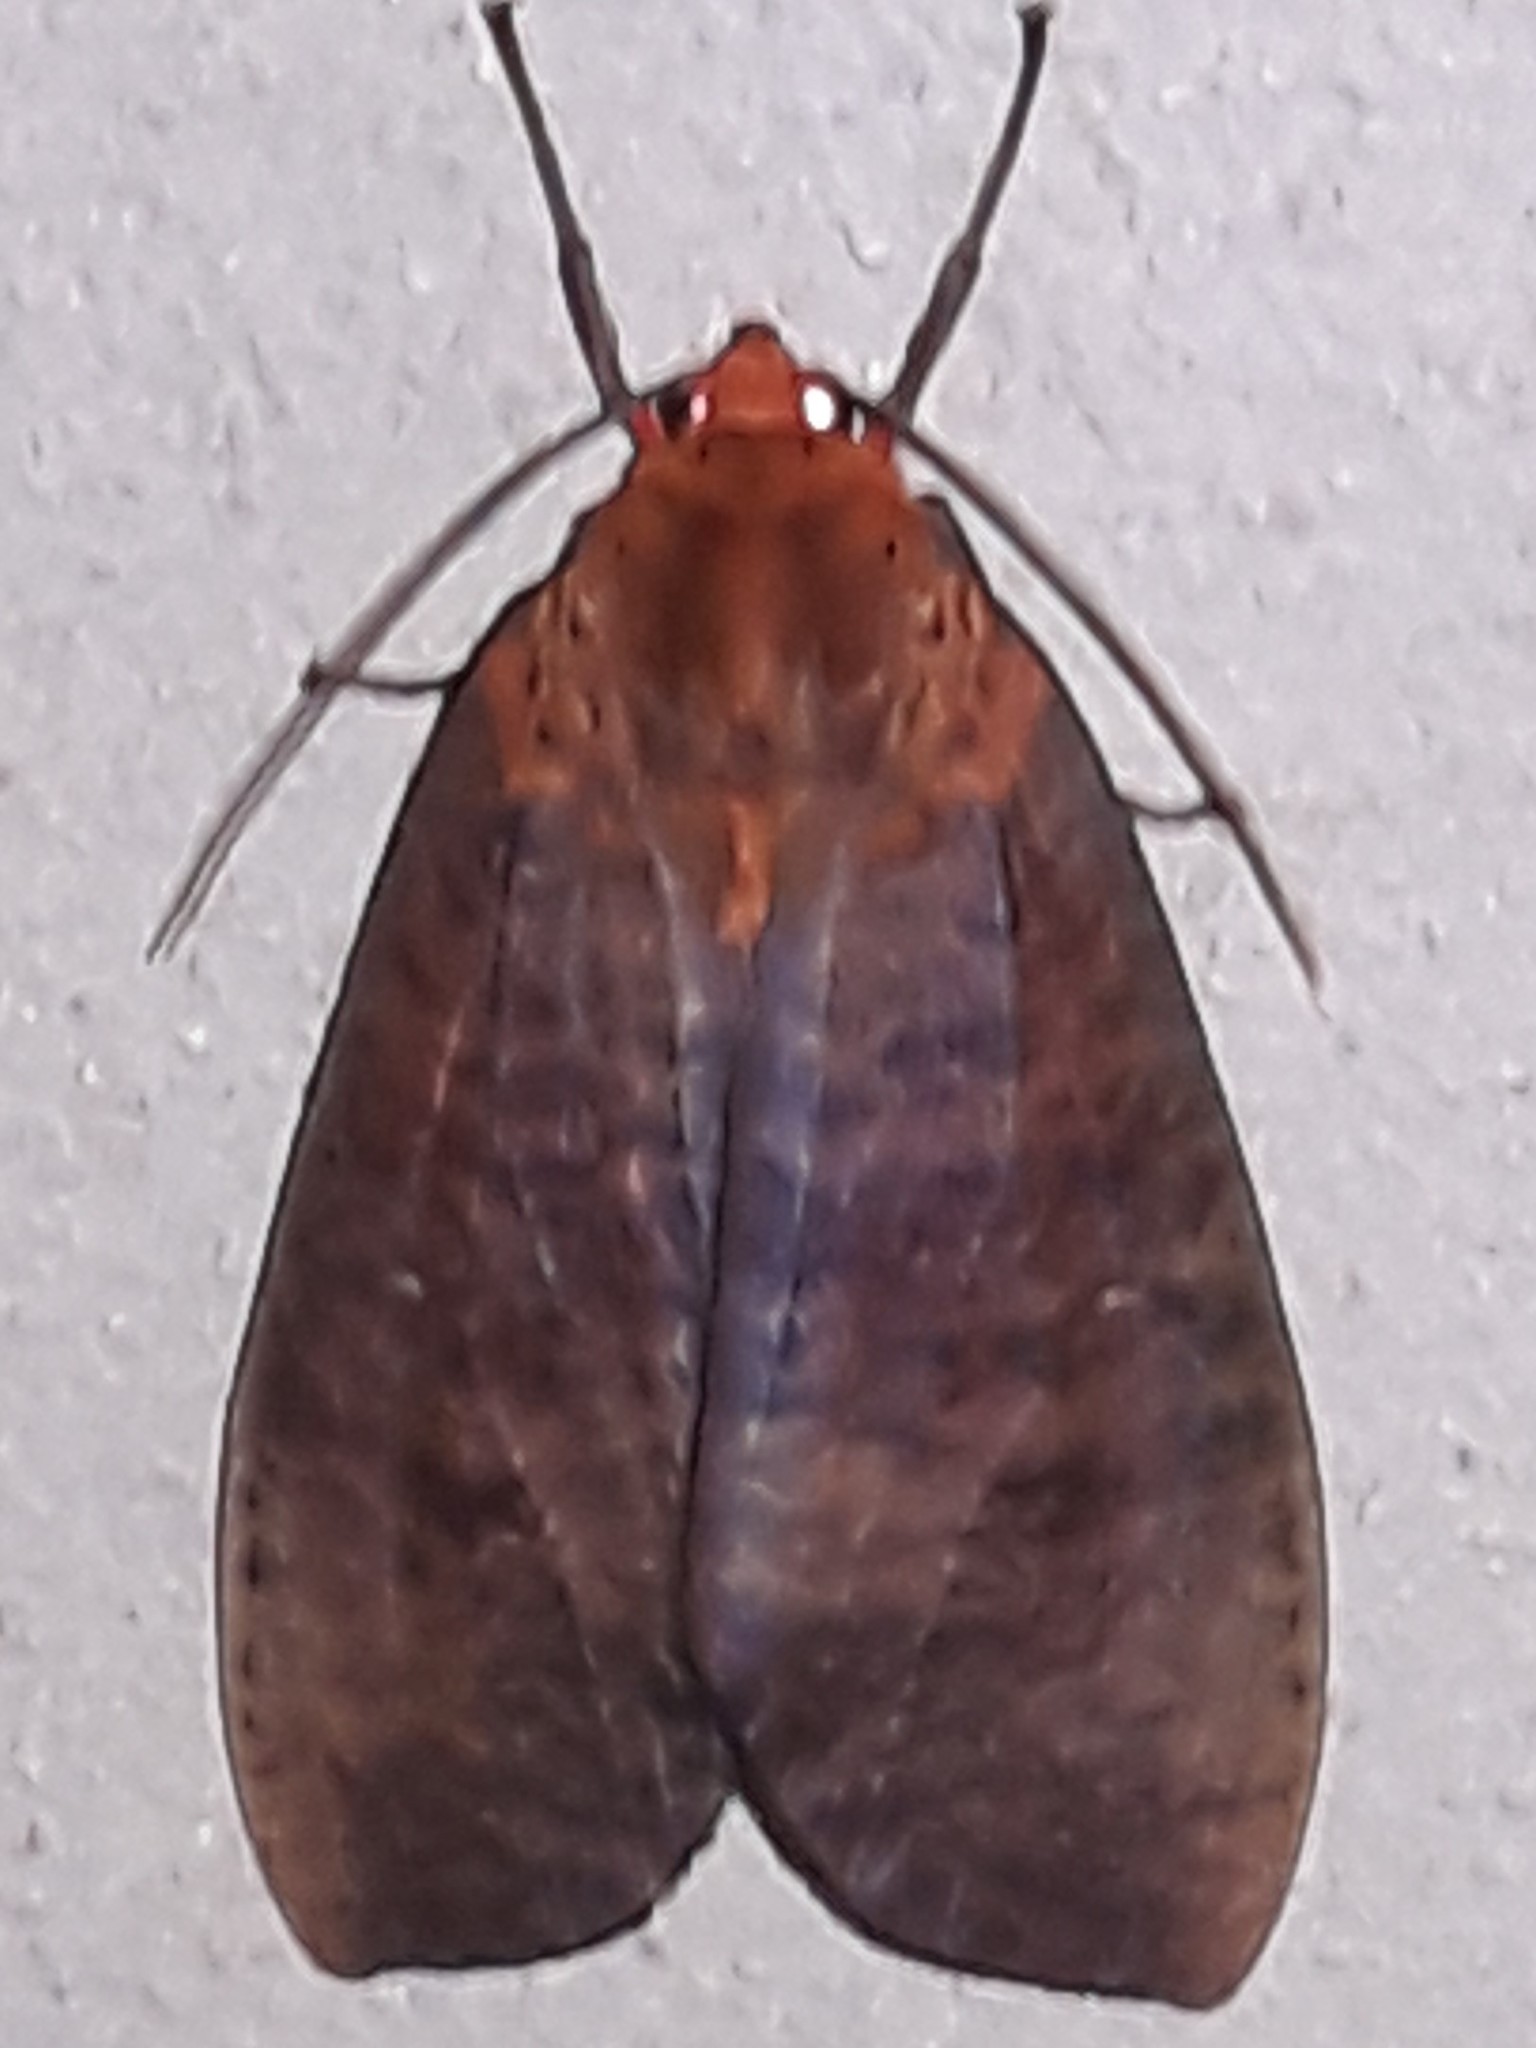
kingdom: Animalia
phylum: Arthropoda
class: Insecta
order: Lepidoptera
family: Erebidae
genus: Ammalo
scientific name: Ammalo helops
